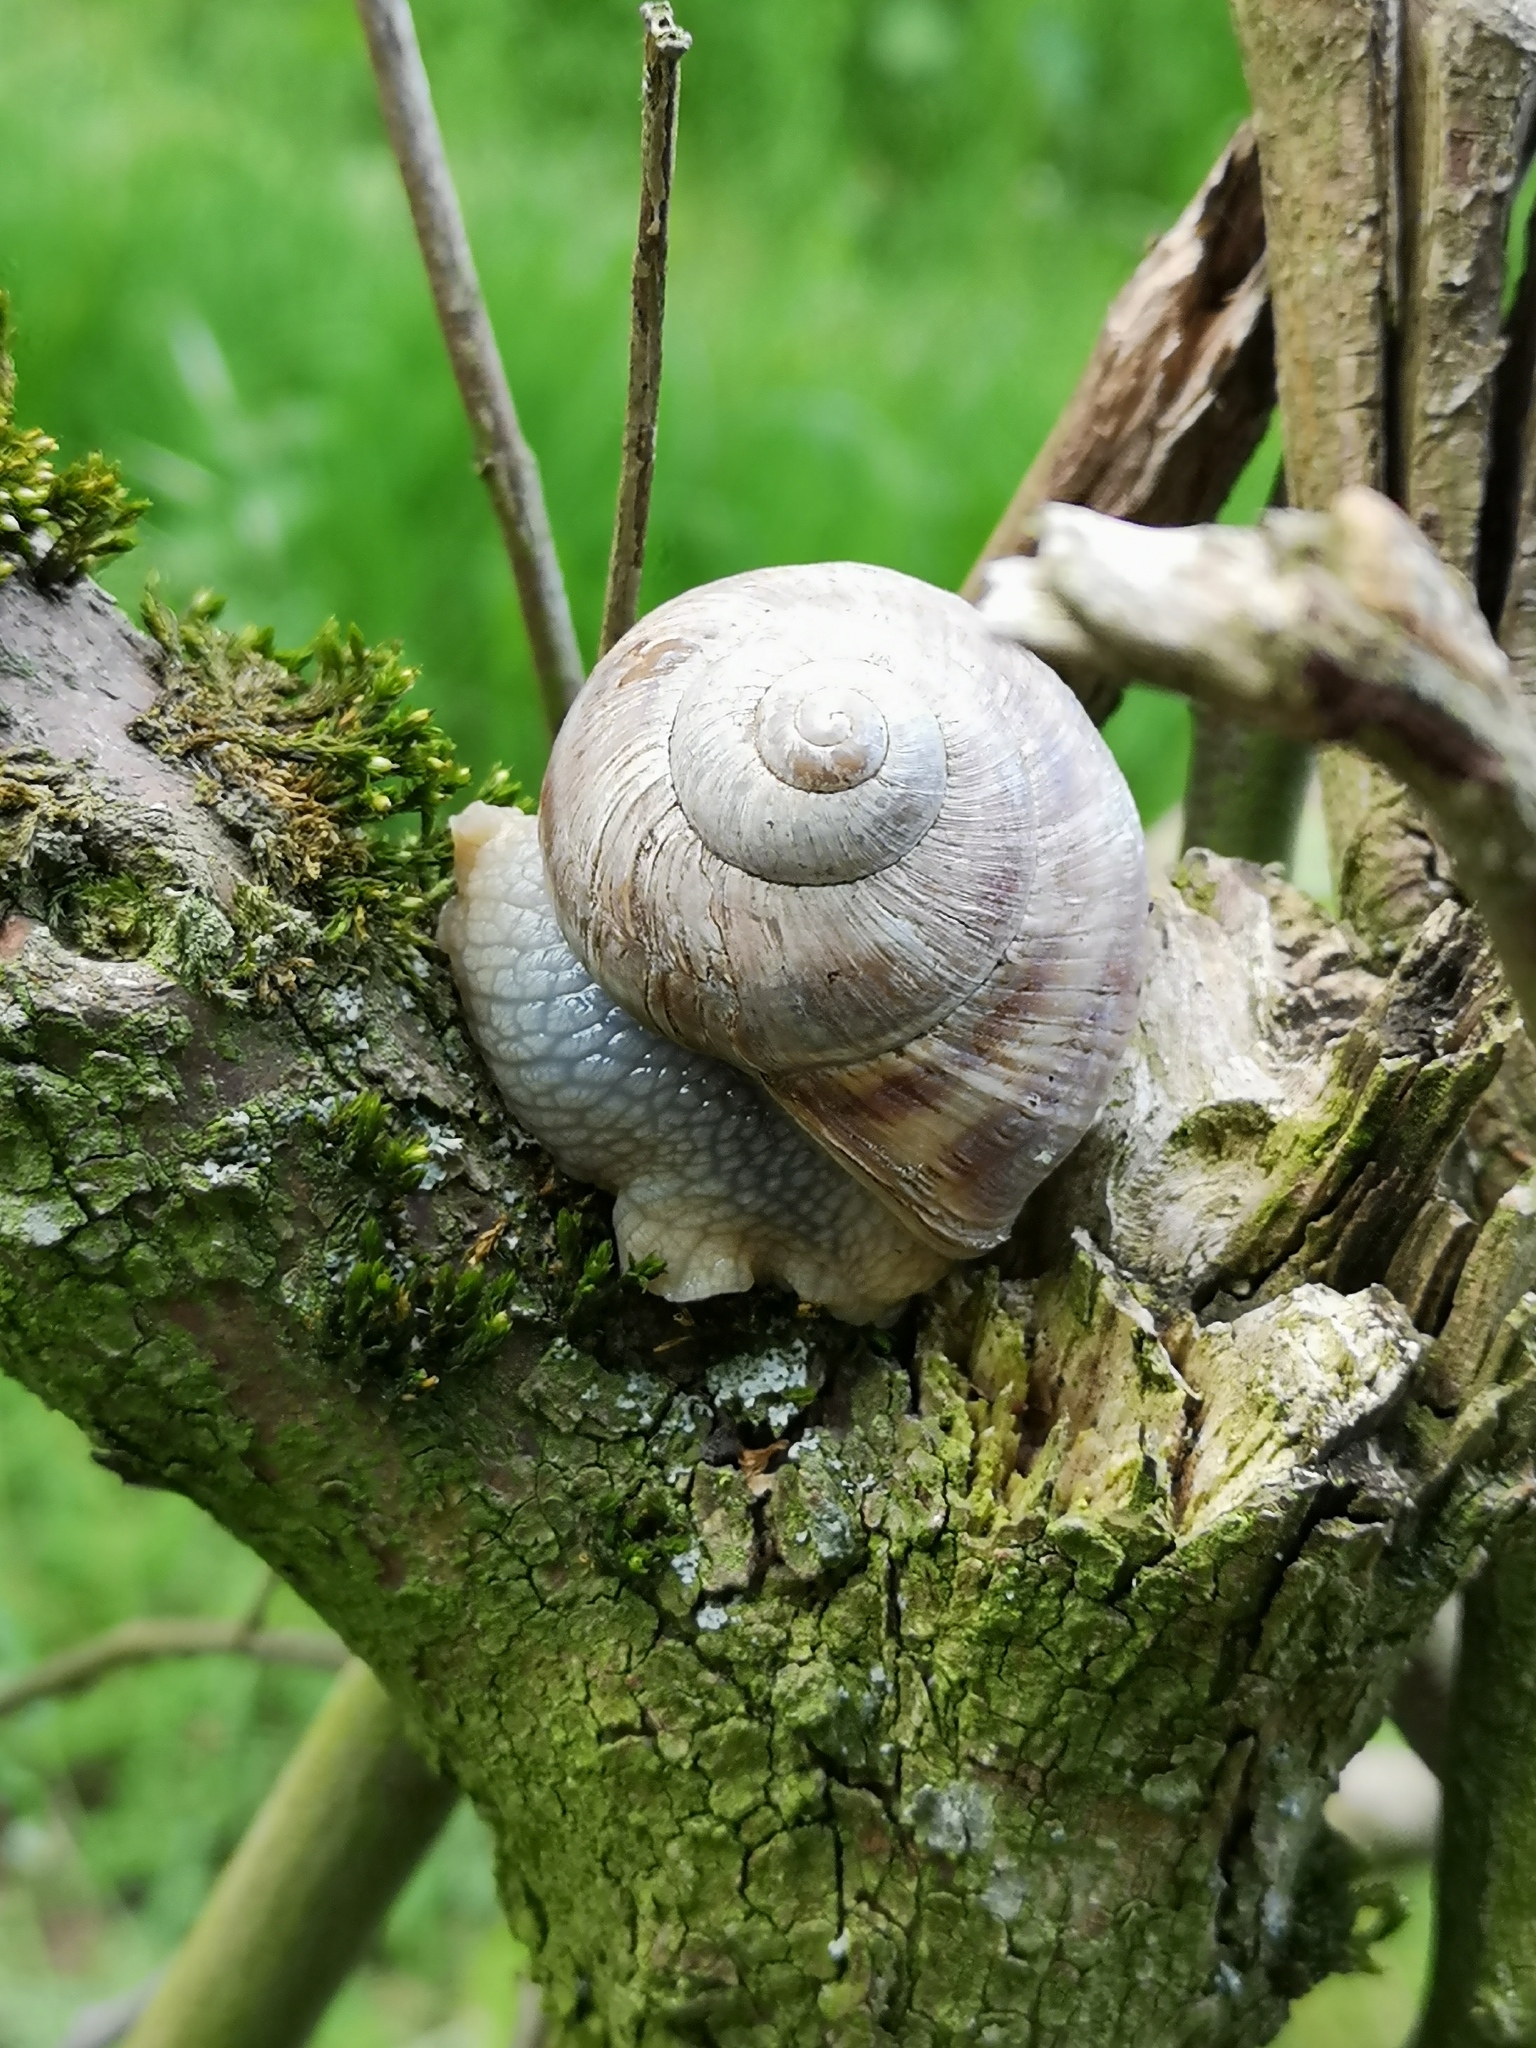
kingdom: Animalia
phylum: Mollusca
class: Gastropoda
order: Stylommatophora
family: Helicidae
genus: Helix
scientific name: Helix pomatia
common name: Roman snail
